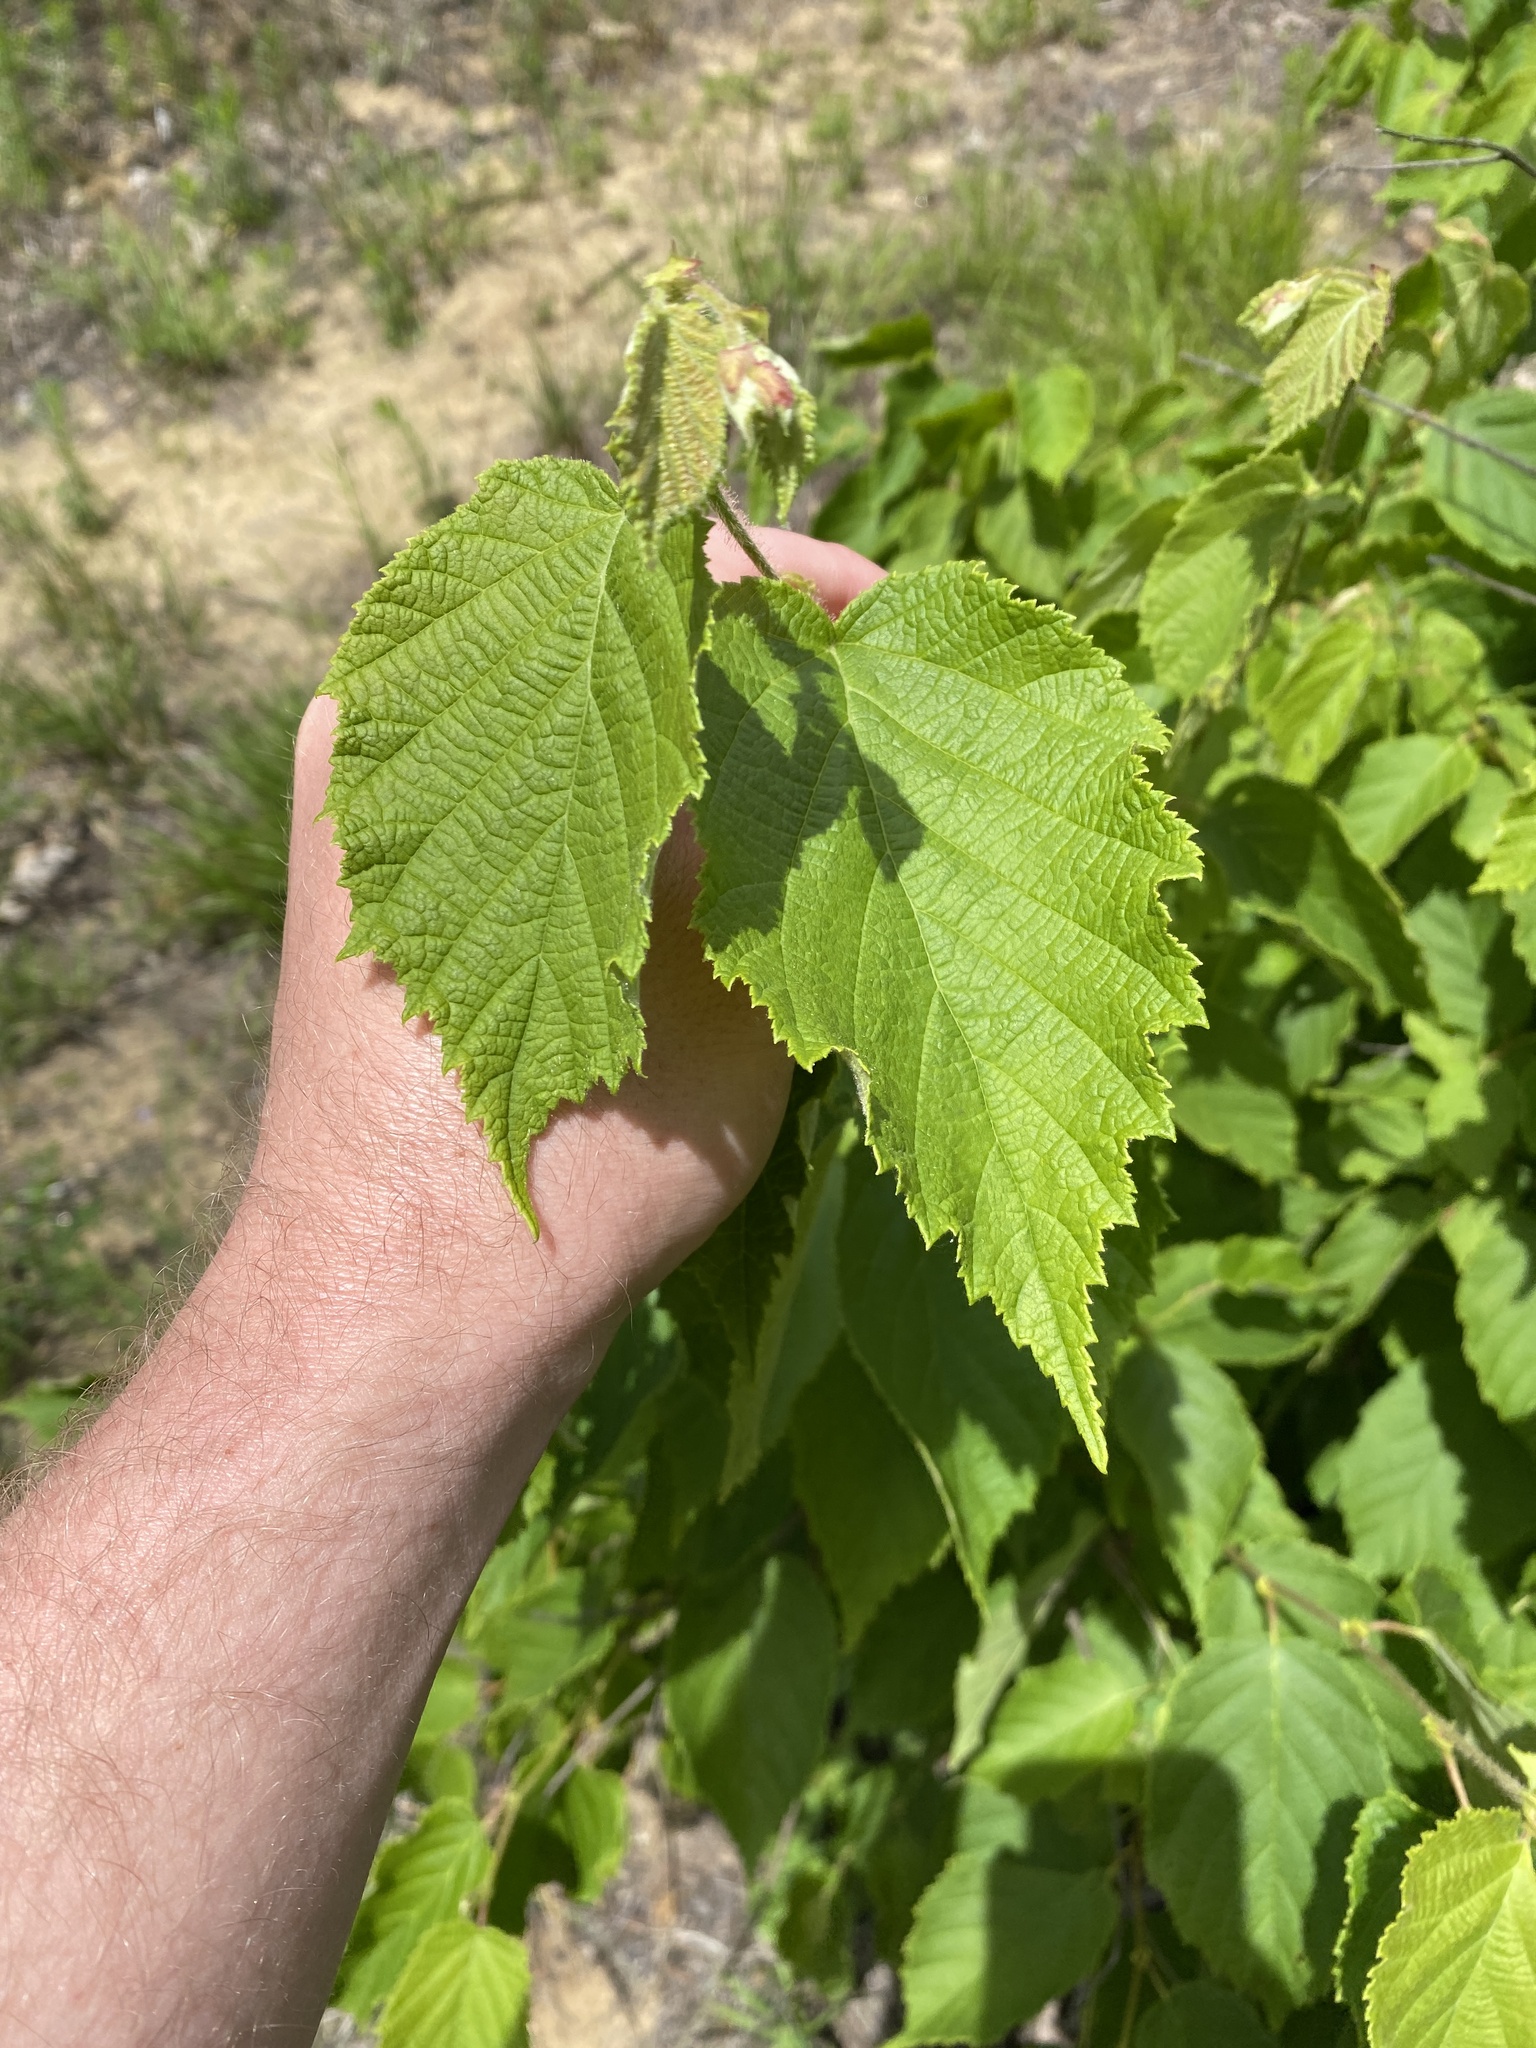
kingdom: Plantae
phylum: Tracheophyta
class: Magnoliopsida
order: Fagales
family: Betulaceae
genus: Corylus
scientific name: Corylus americana
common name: American hazel
